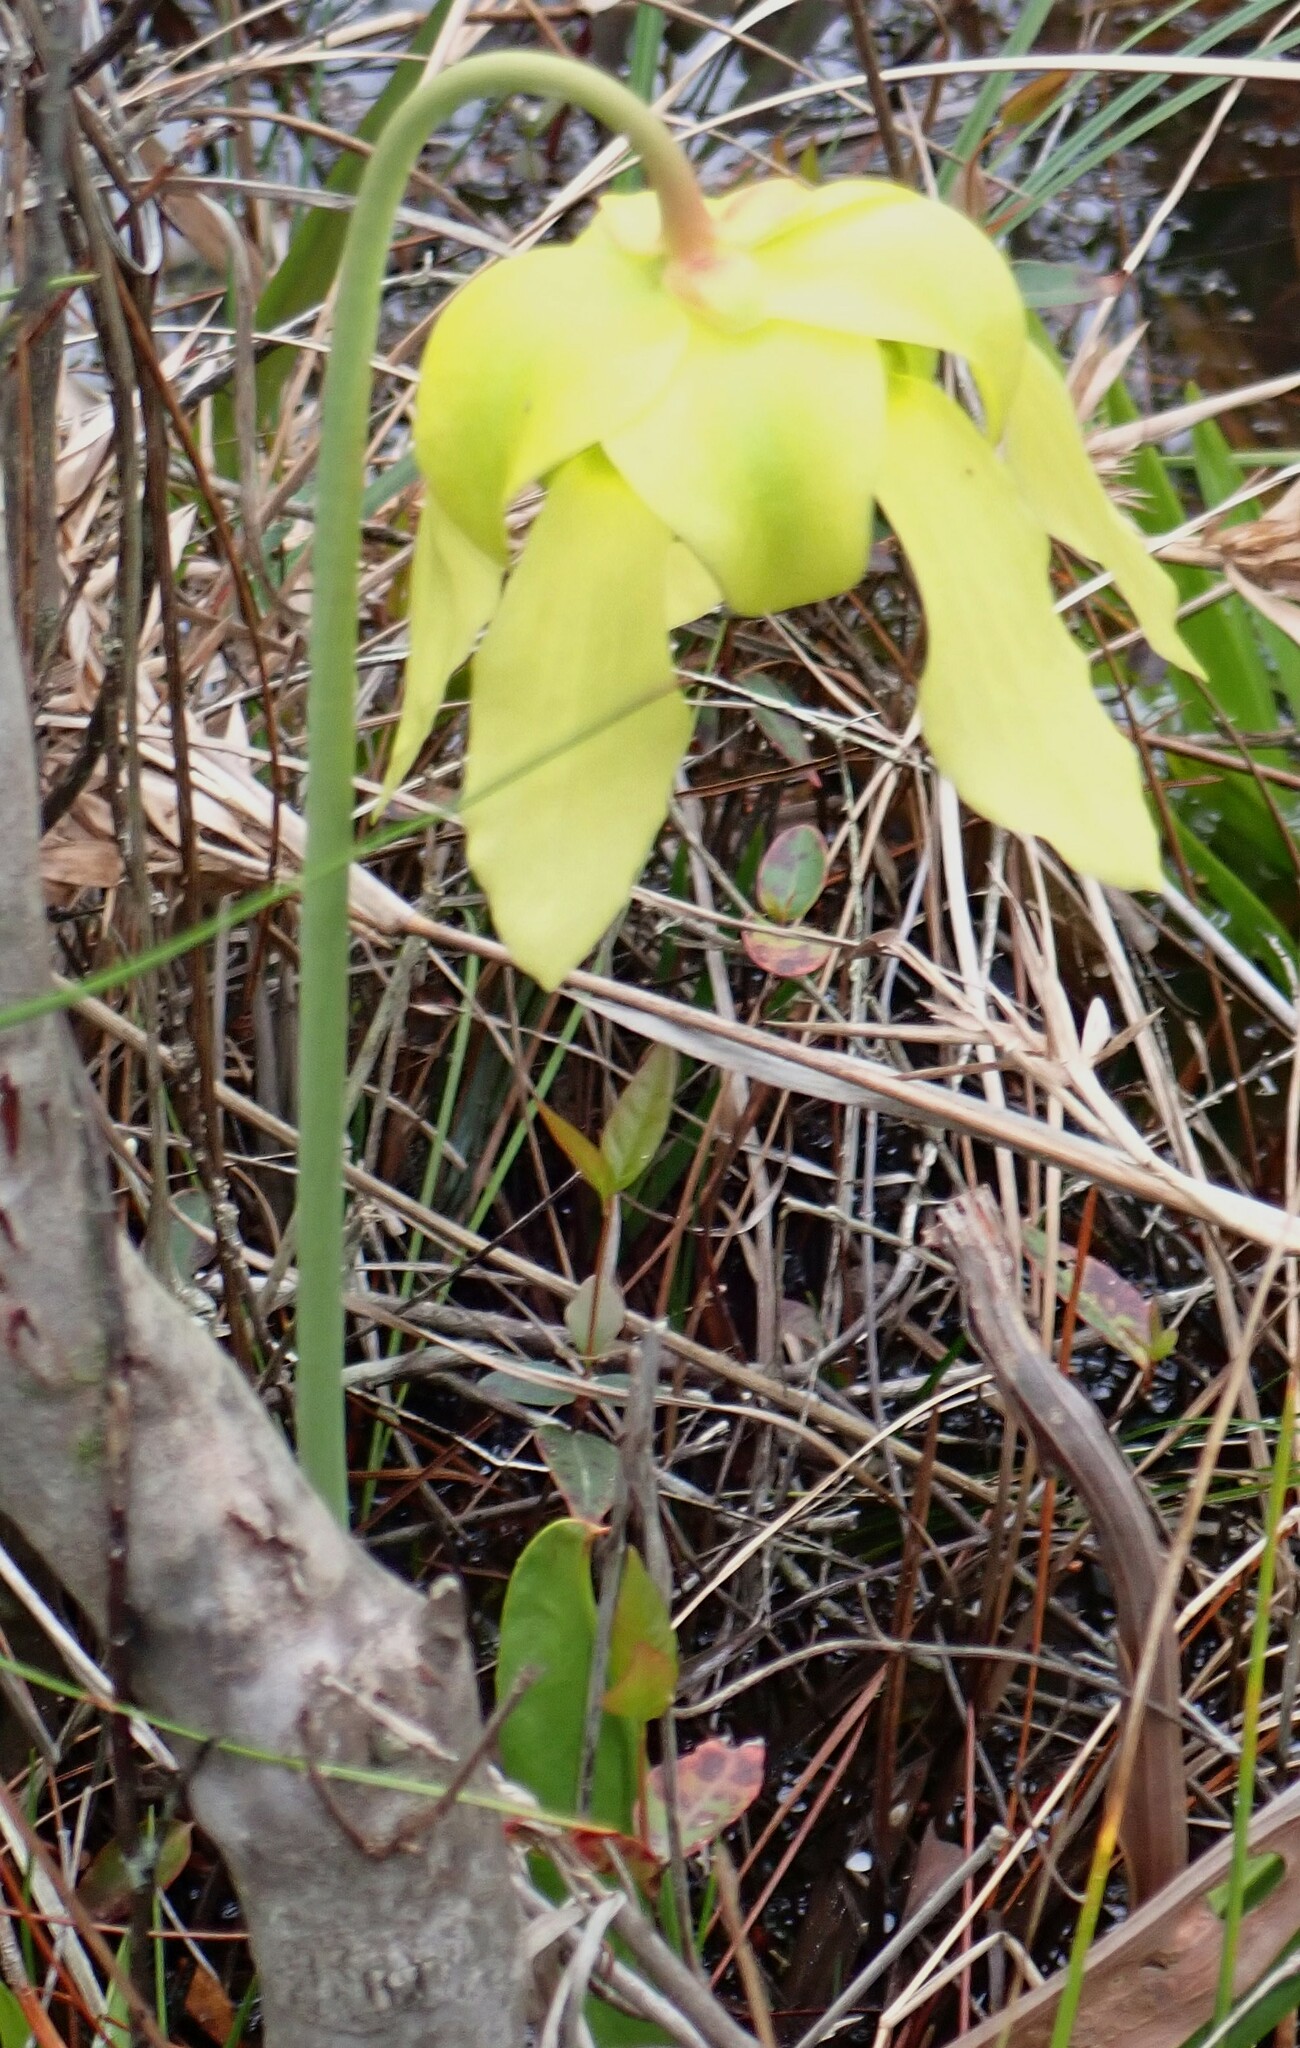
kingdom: Plantae
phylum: Tracheophyta
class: Magnoliopsida
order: Ericales
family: Sarraceniaceae
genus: Sarracenia
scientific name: Sarracenia flava
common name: Trumpets
